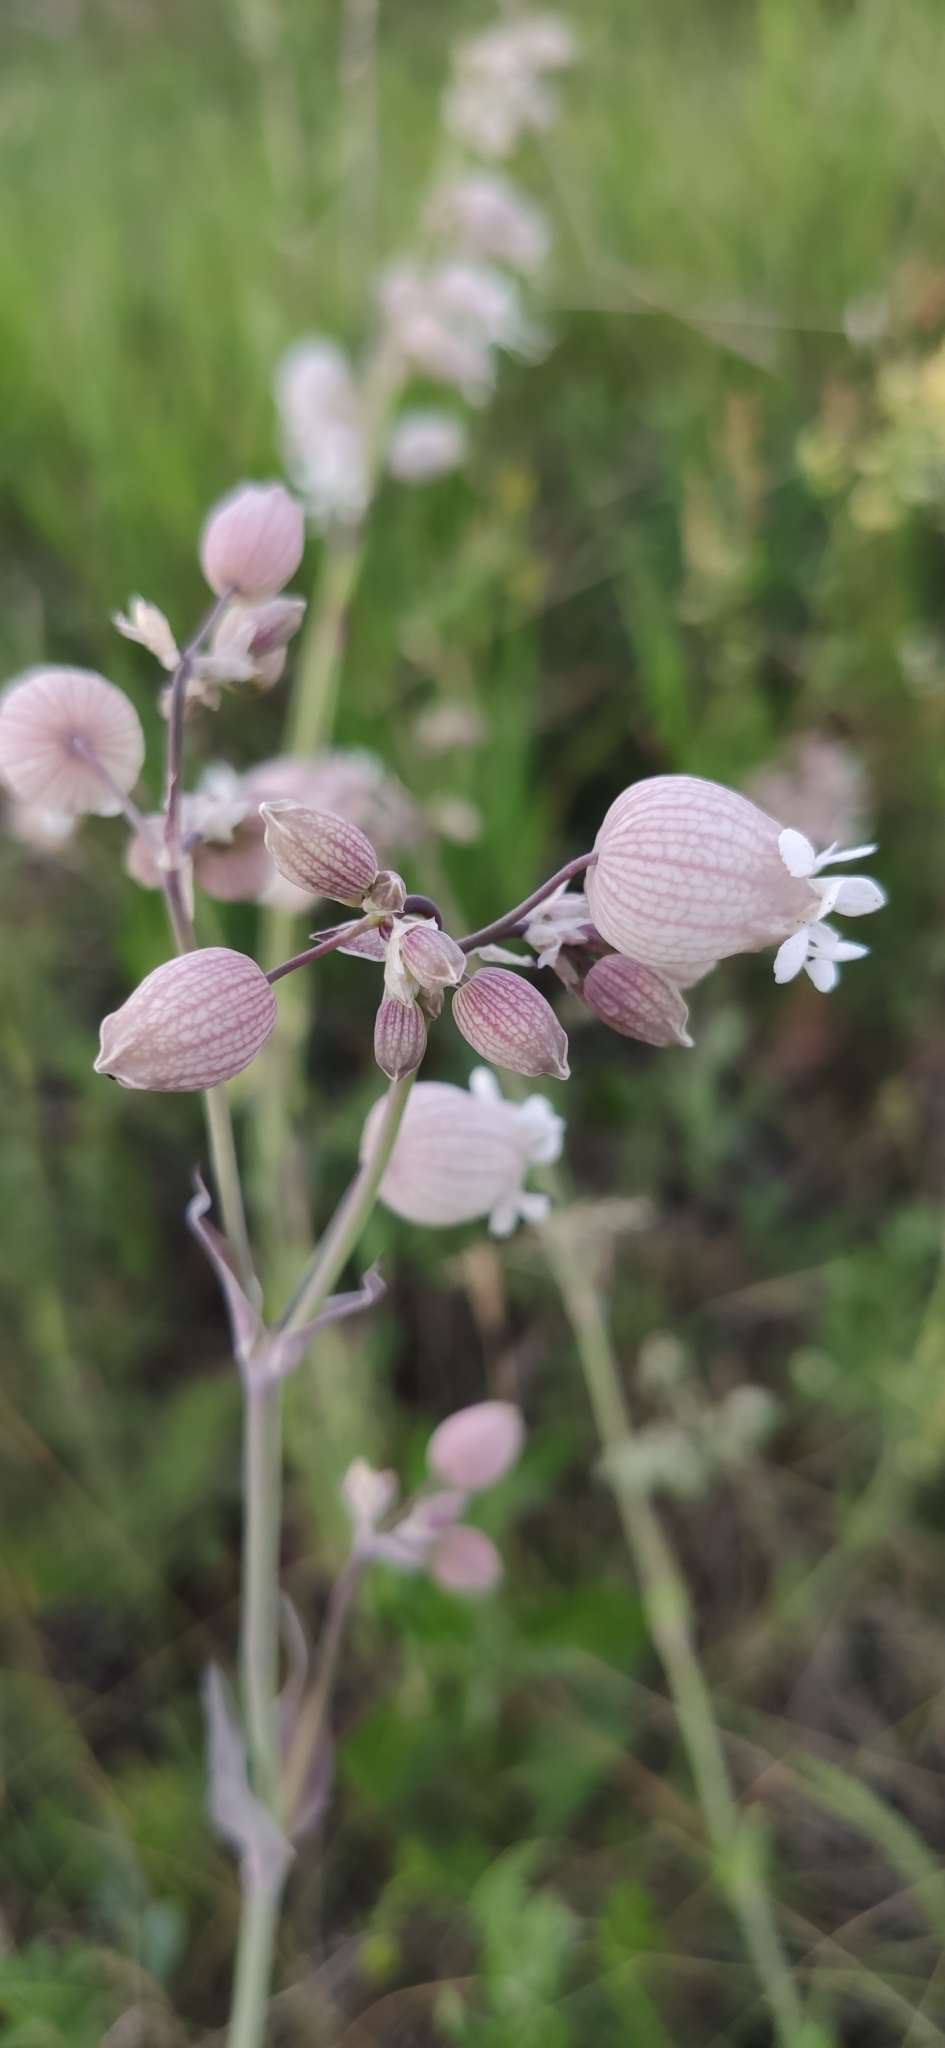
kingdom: Plantae
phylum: Tracheophyta
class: Magnoliopsida
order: Caryophyllales
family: Caryophyllaceae
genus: Silene
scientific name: Silene vulgaris
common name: Bladder campion
